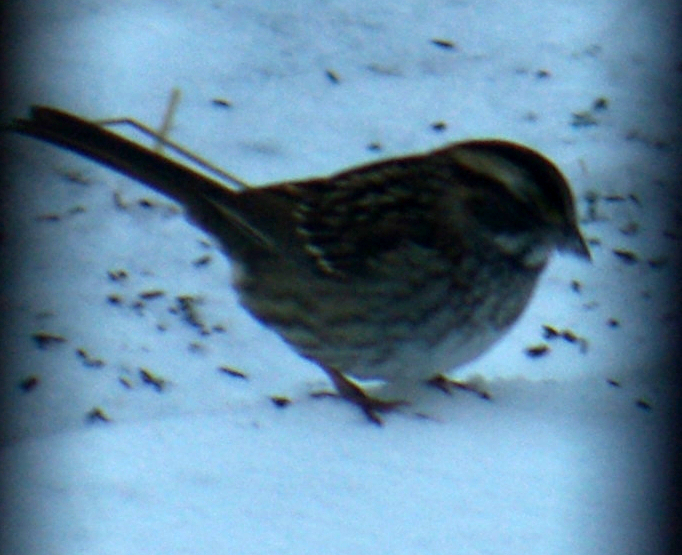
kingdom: Animalia
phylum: Chordata
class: Aves
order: Passeriformes
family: Passerellidae
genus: Zonotrichia
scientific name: Zonotrichia albicollis
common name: White-throated sparrow
